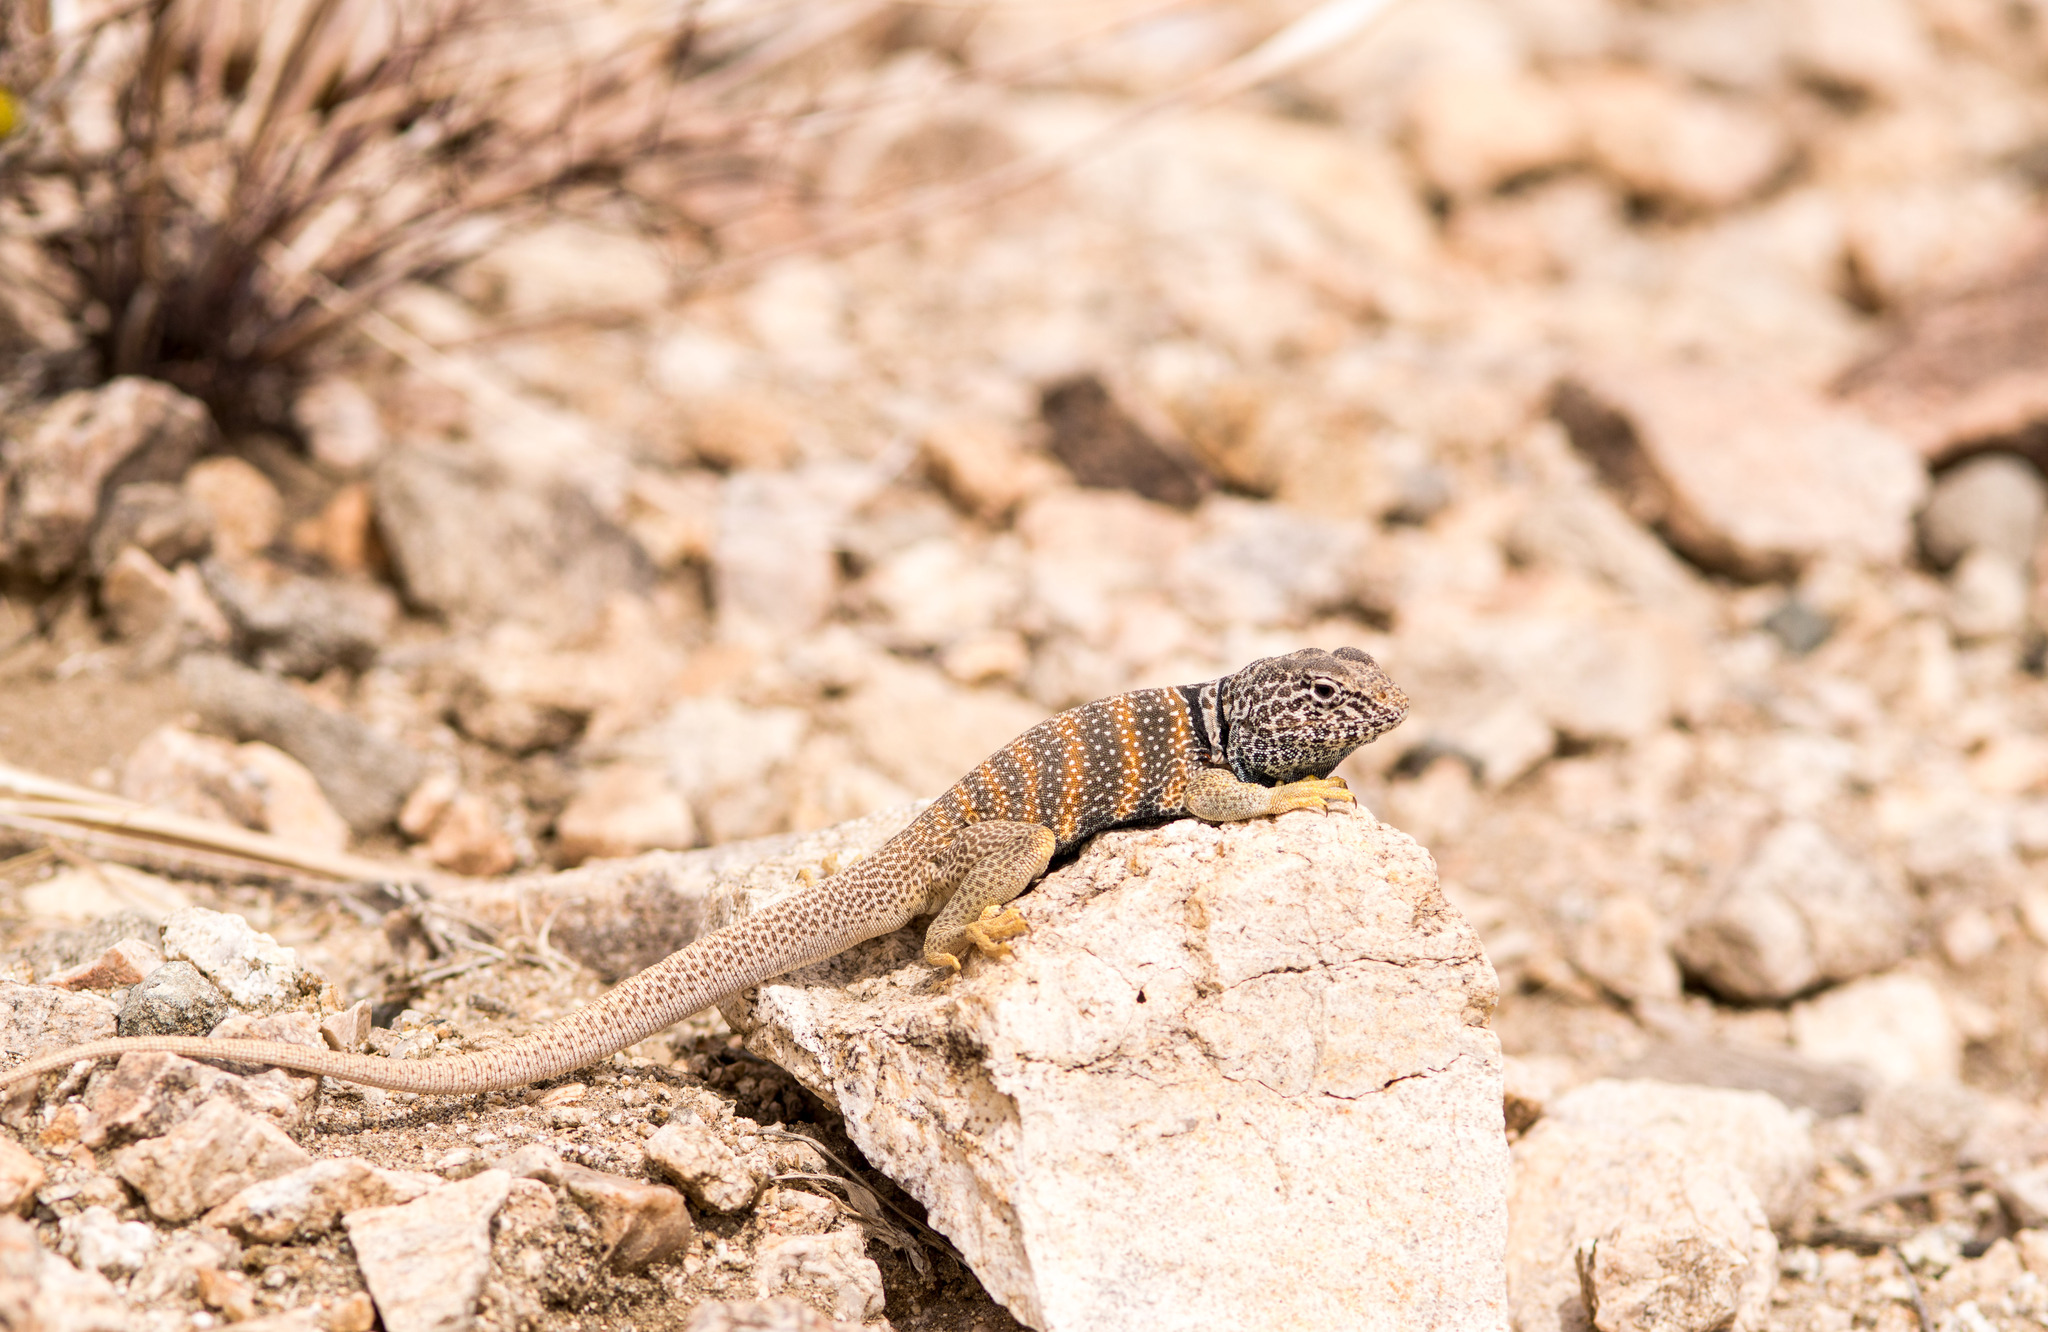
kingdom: Animalia
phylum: Chordata
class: Squamata
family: Crotaphytidae
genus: Crotaphytus
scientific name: Crotaphytus bicinctores
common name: Mojave black-collared lizard
